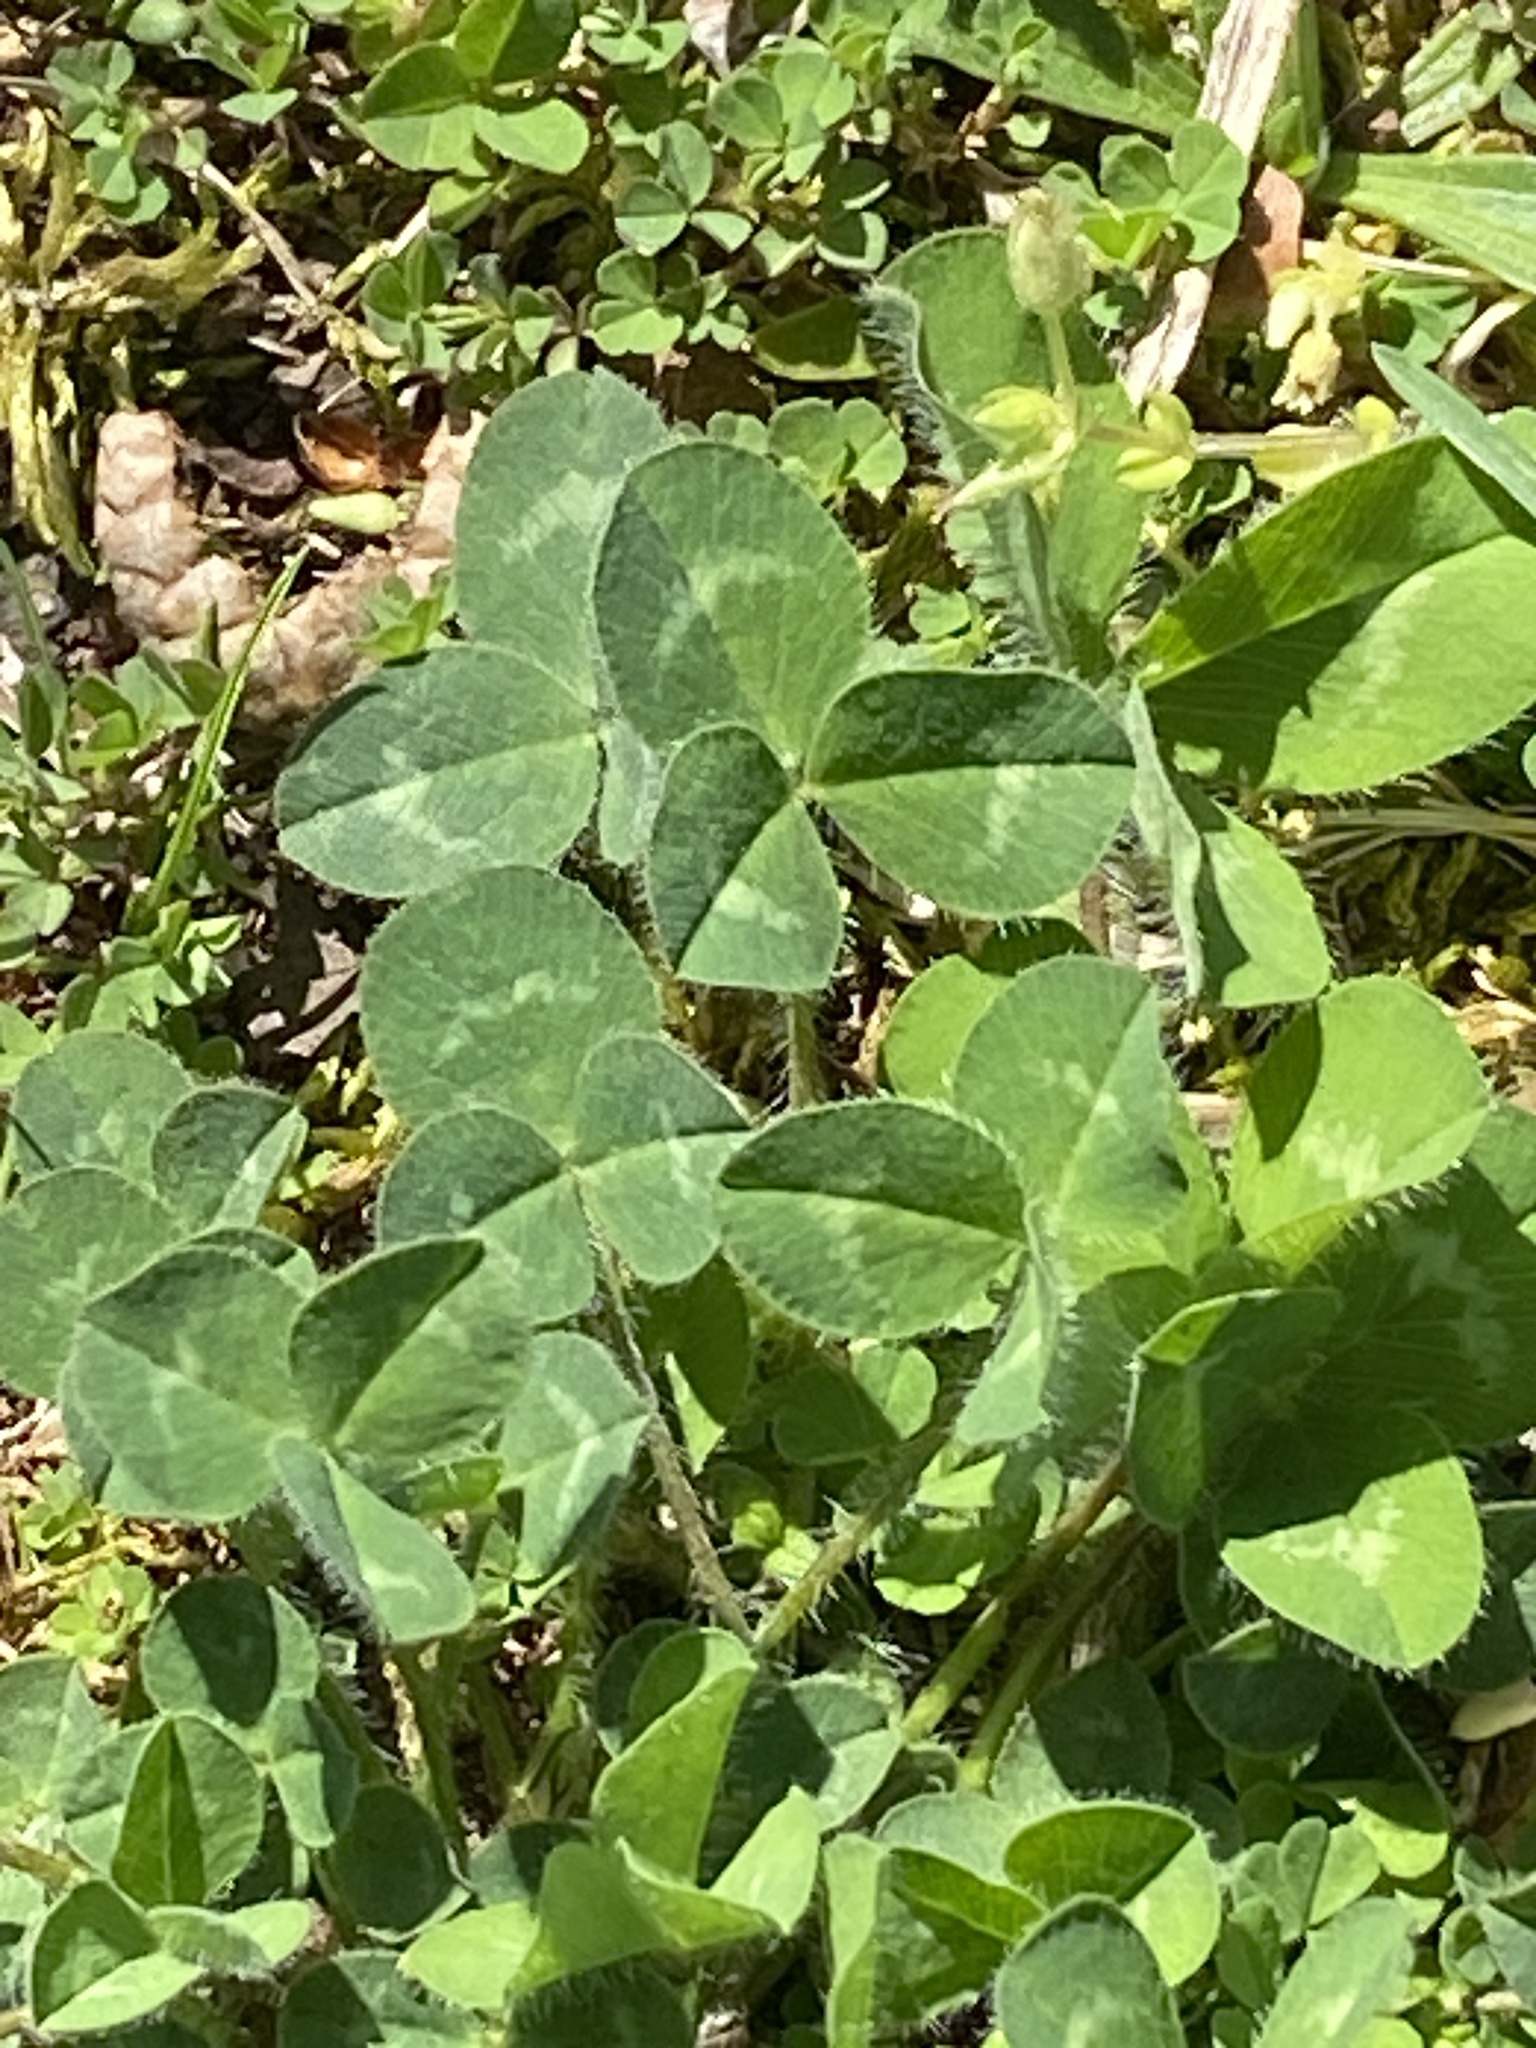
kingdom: Plantae
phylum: Tracheophyta
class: Magnoliopsida
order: Fabales
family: Fabaceae
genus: Trifolium
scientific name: Trifolium pratense
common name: Red clover
